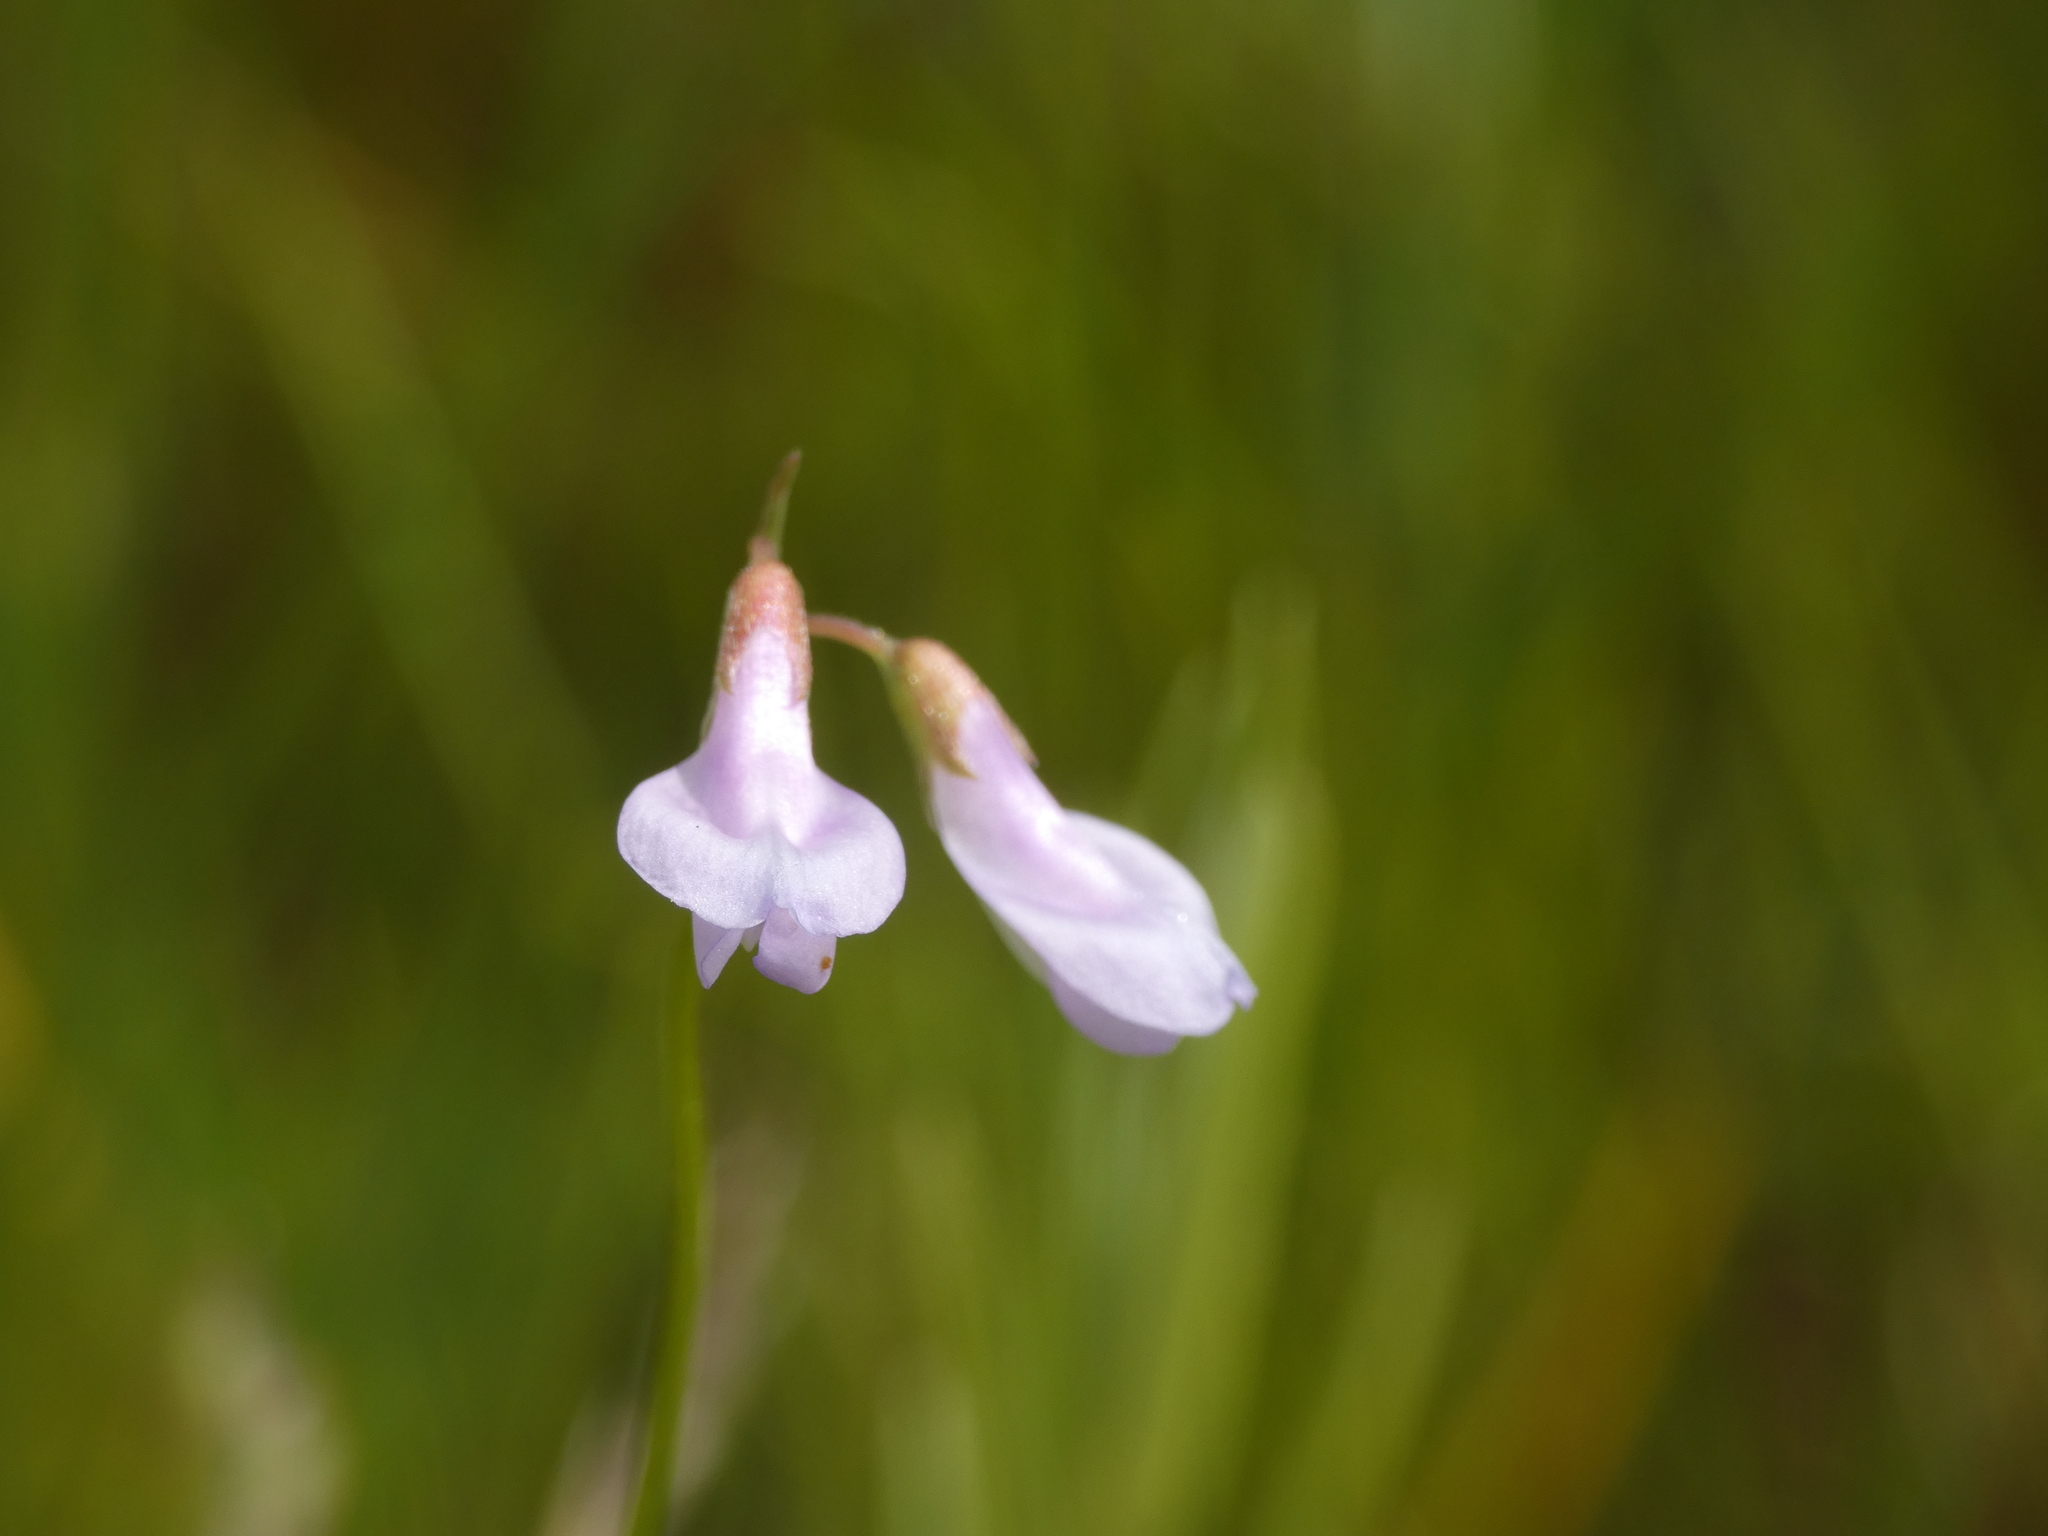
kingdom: Plantae
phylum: Tracheophyta
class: Magnoliopsida
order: Fabales
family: Fabaceae
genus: Vicia
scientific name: Vicia parviflora
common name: Slender tare
